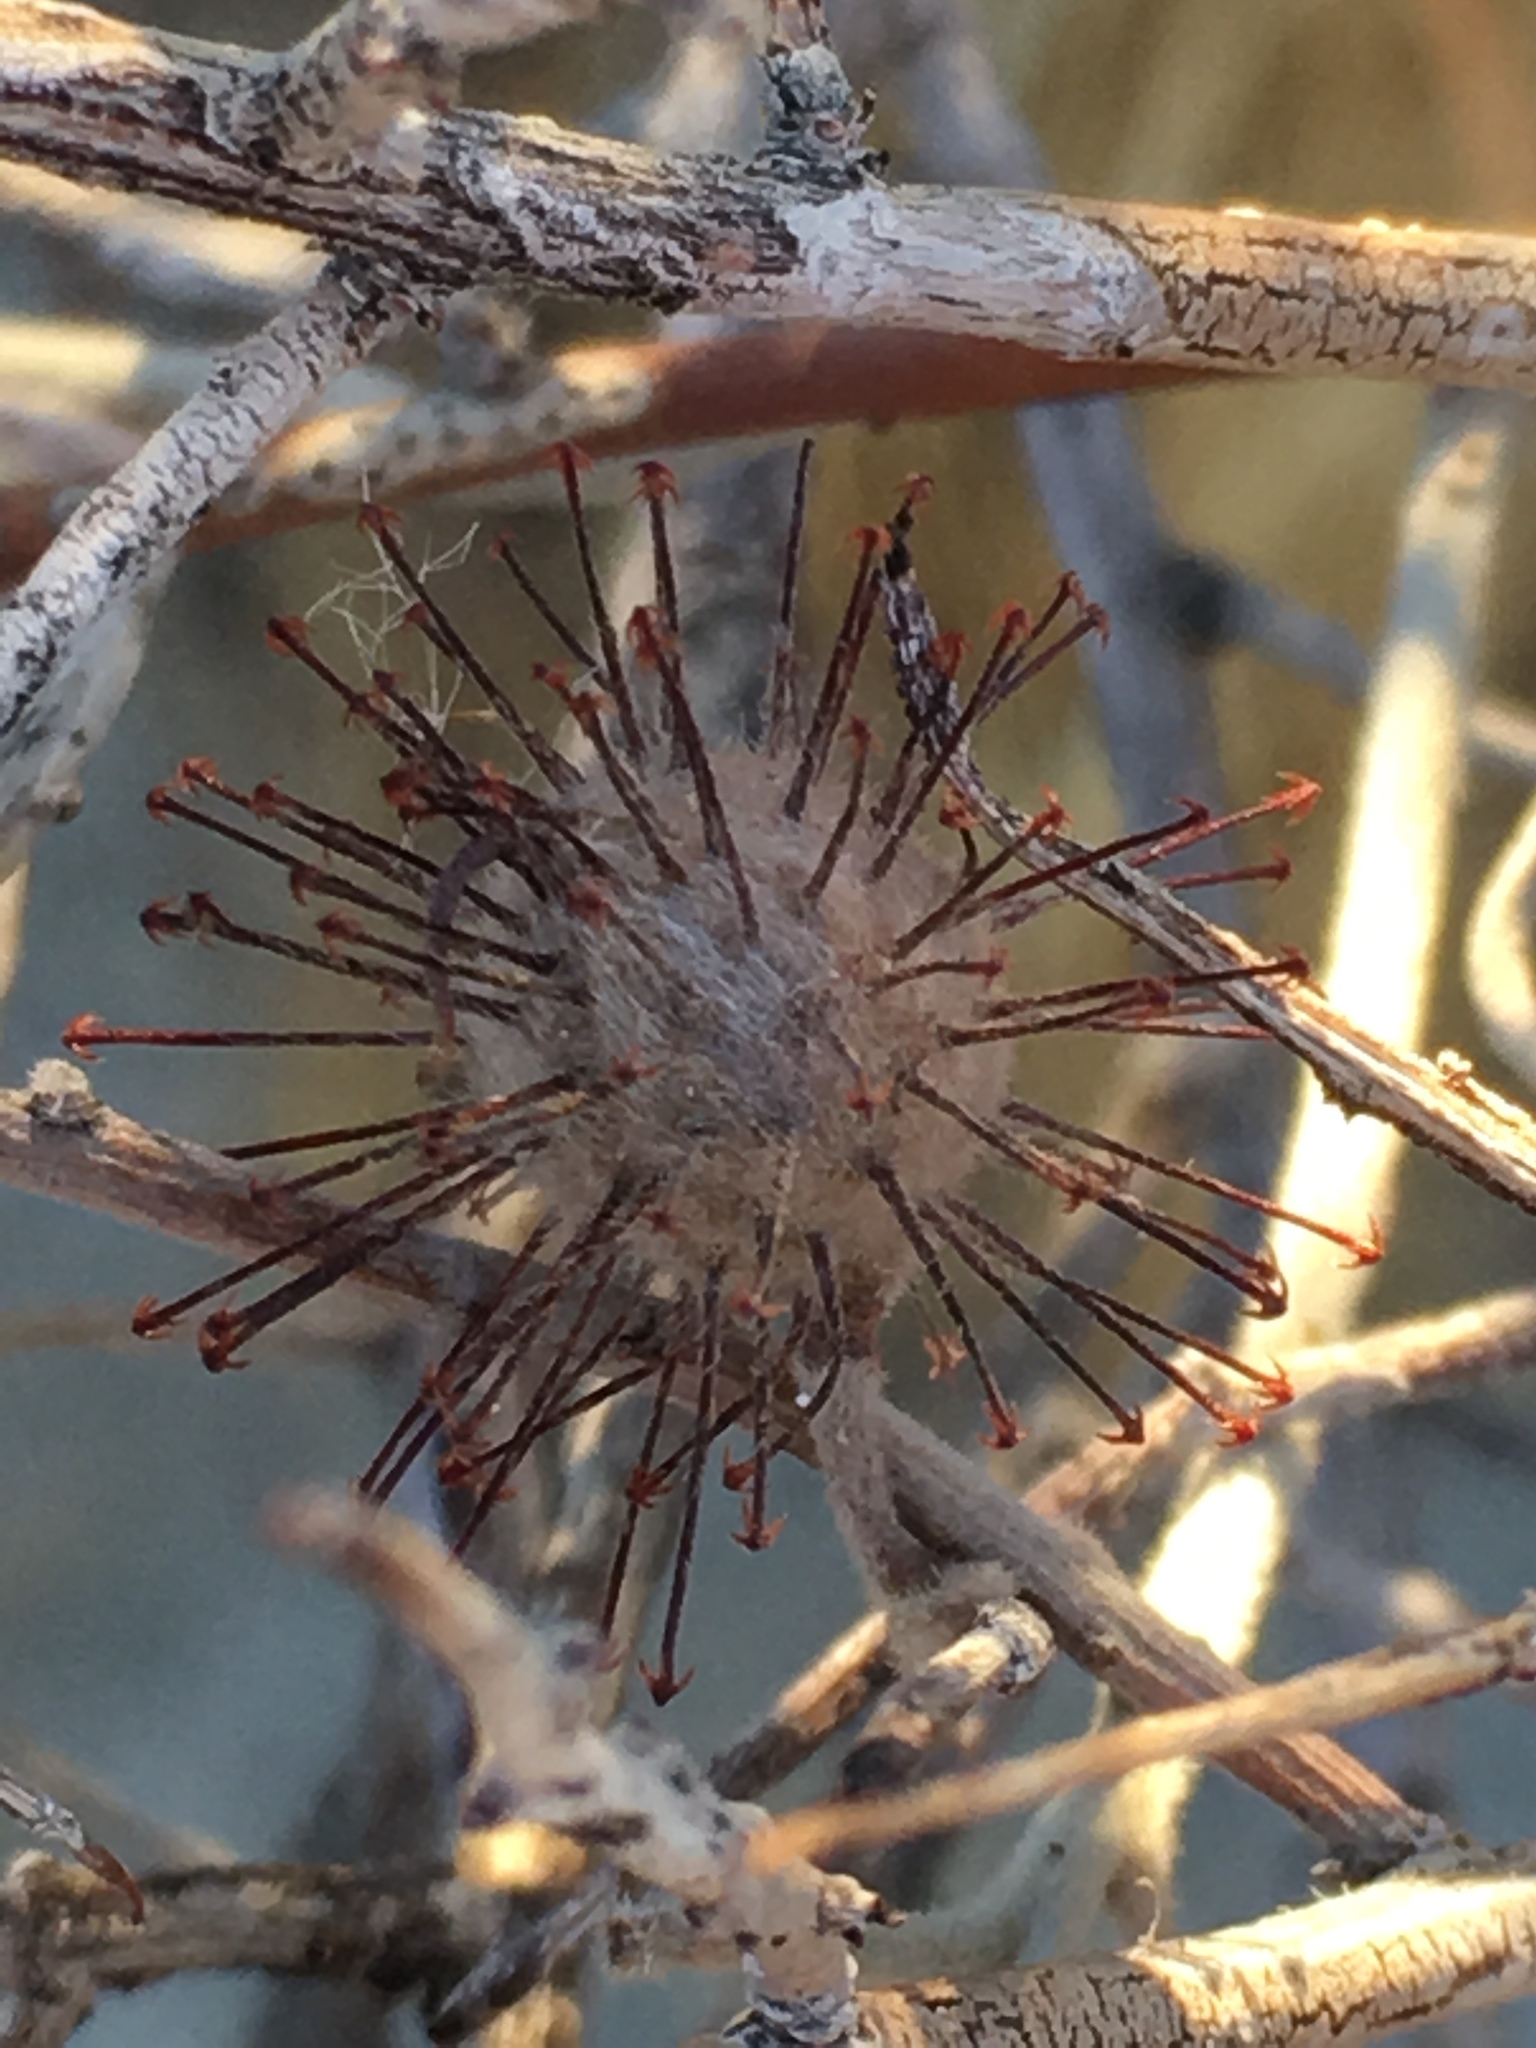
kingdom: Plantae
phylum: Tracheophyta
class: Magnoliopsida
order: Zygophyllales
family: Krameriaceae
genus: Krameria
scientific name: Krameria bicolor
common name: White ratany
